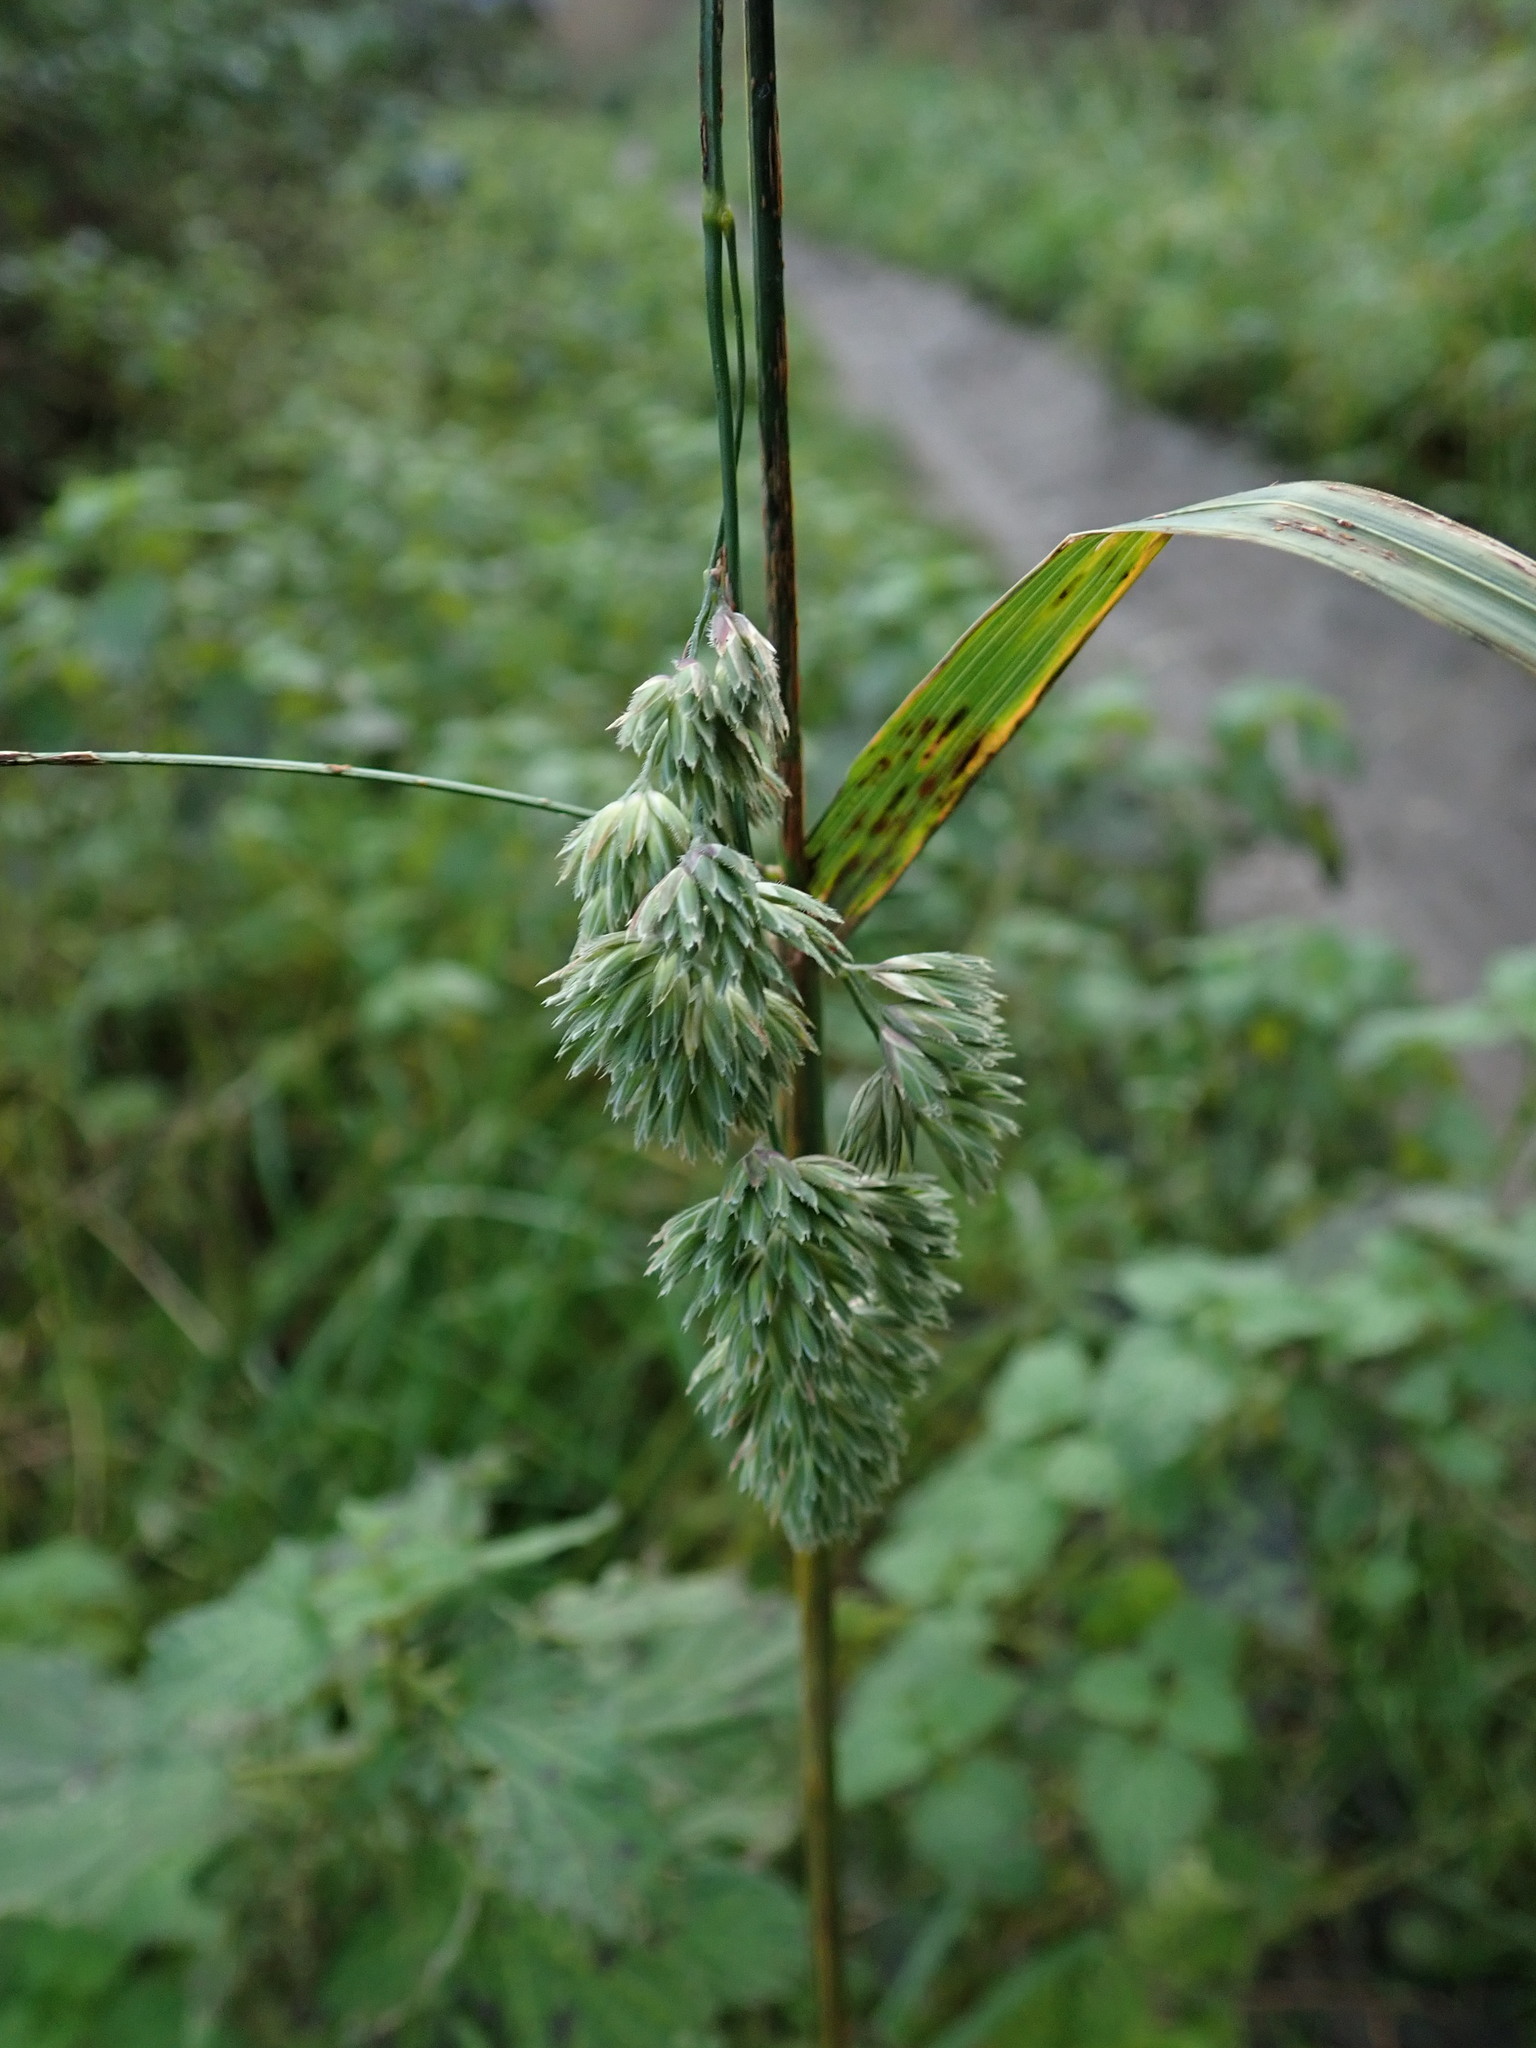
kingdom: Plantae
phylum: Tracheophyta
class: Liliopsida
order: Poales
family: Poaceae
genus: Dactylis
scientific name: Dactylis glomerata
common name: Orchardgrass
